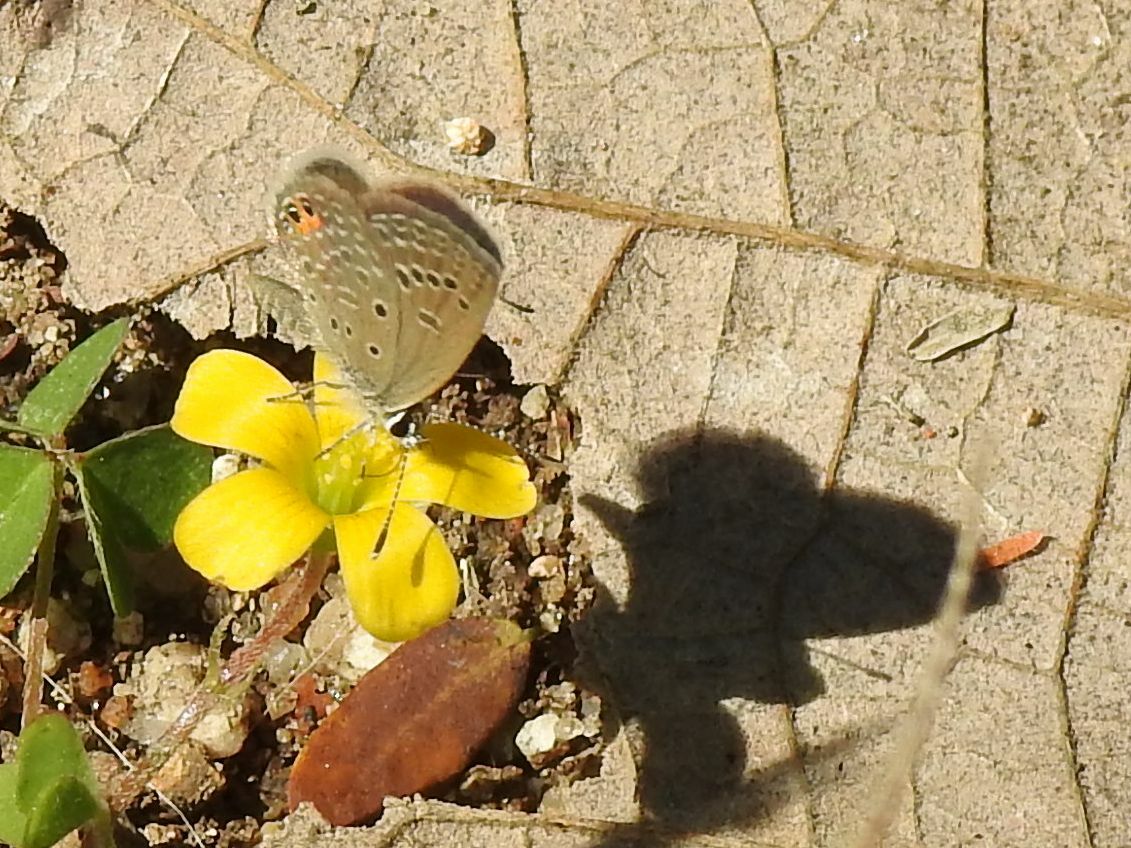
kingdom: Animalia
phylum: Arthropoda
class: Insecta
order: Lepidoptera
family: Lycaenidae
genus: Freyeria
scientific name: Freyeria trochylus
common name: Grass jewel
